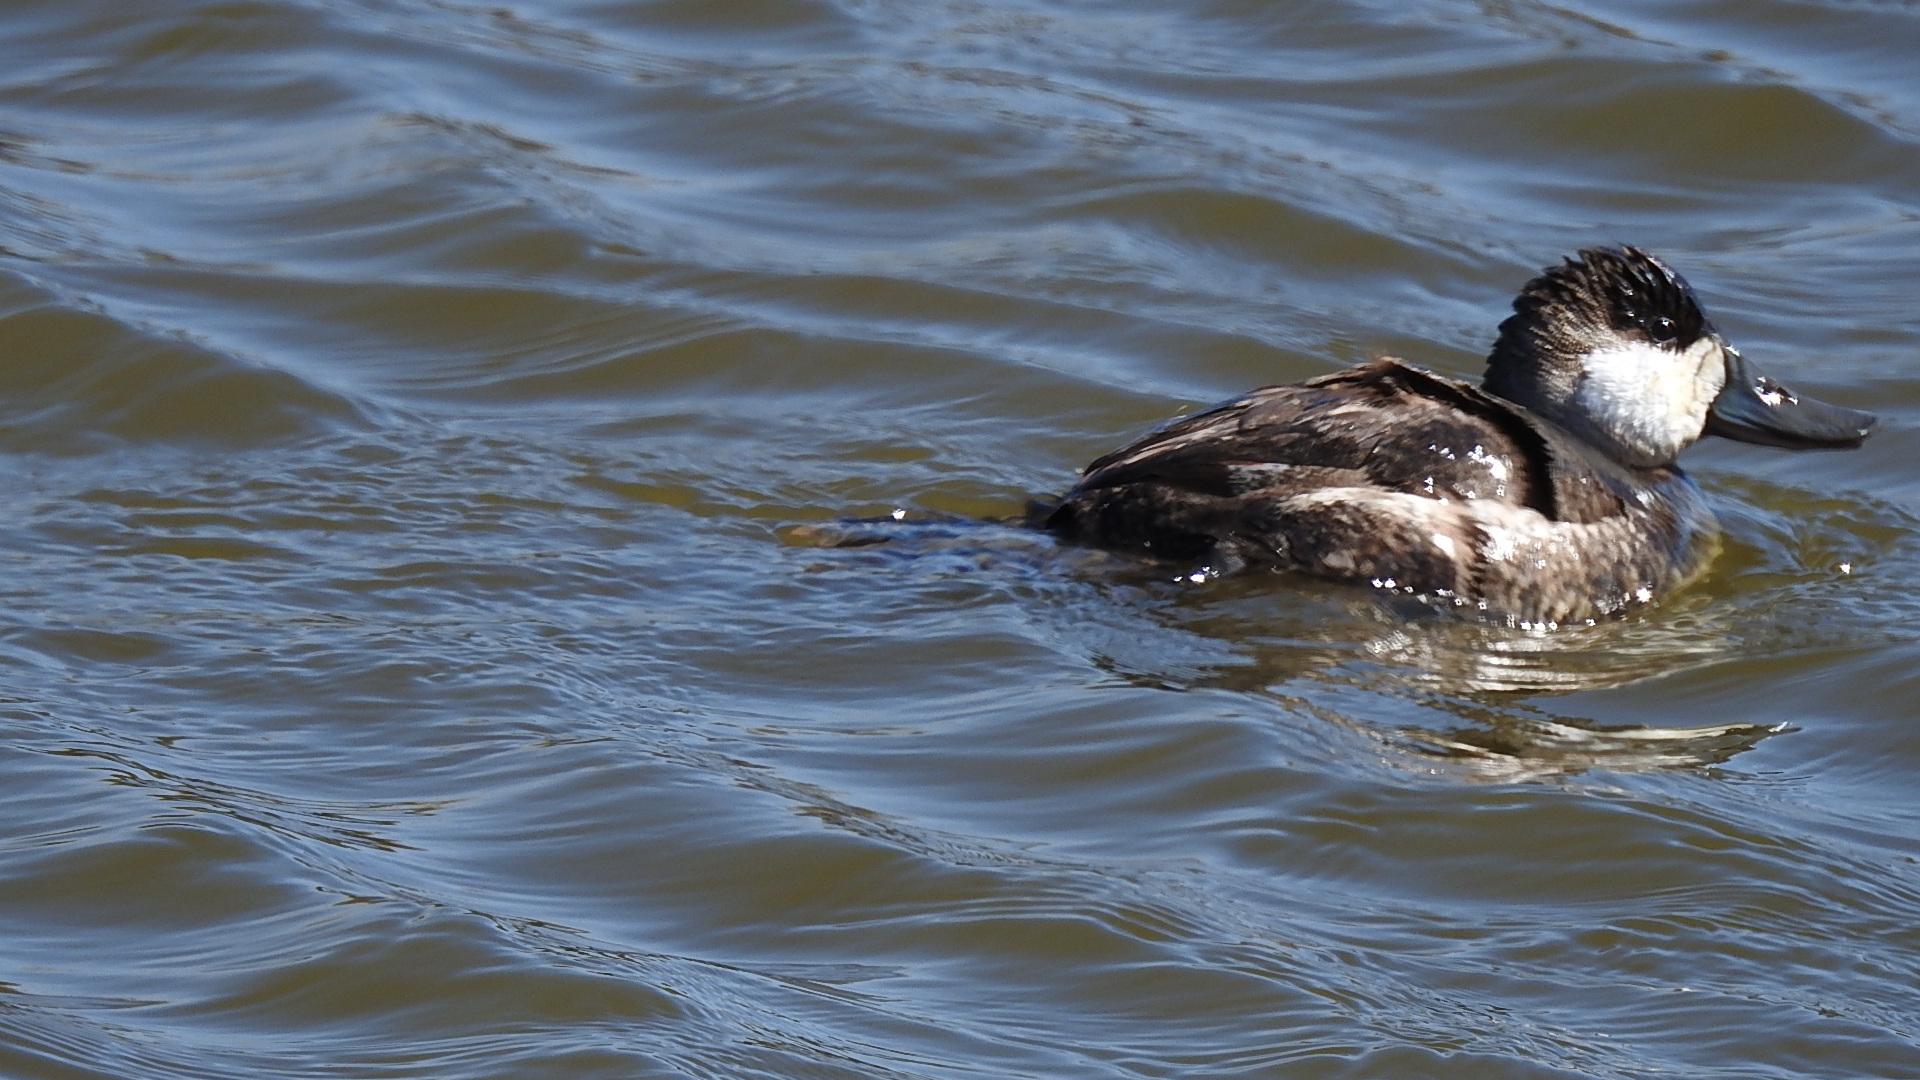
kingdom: Animalia
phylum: Chordata
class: Aves
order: Anseriformes
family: Anatidae
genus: Oxyura
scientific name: Oxyura jamaicensis
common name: Ruddy duck
